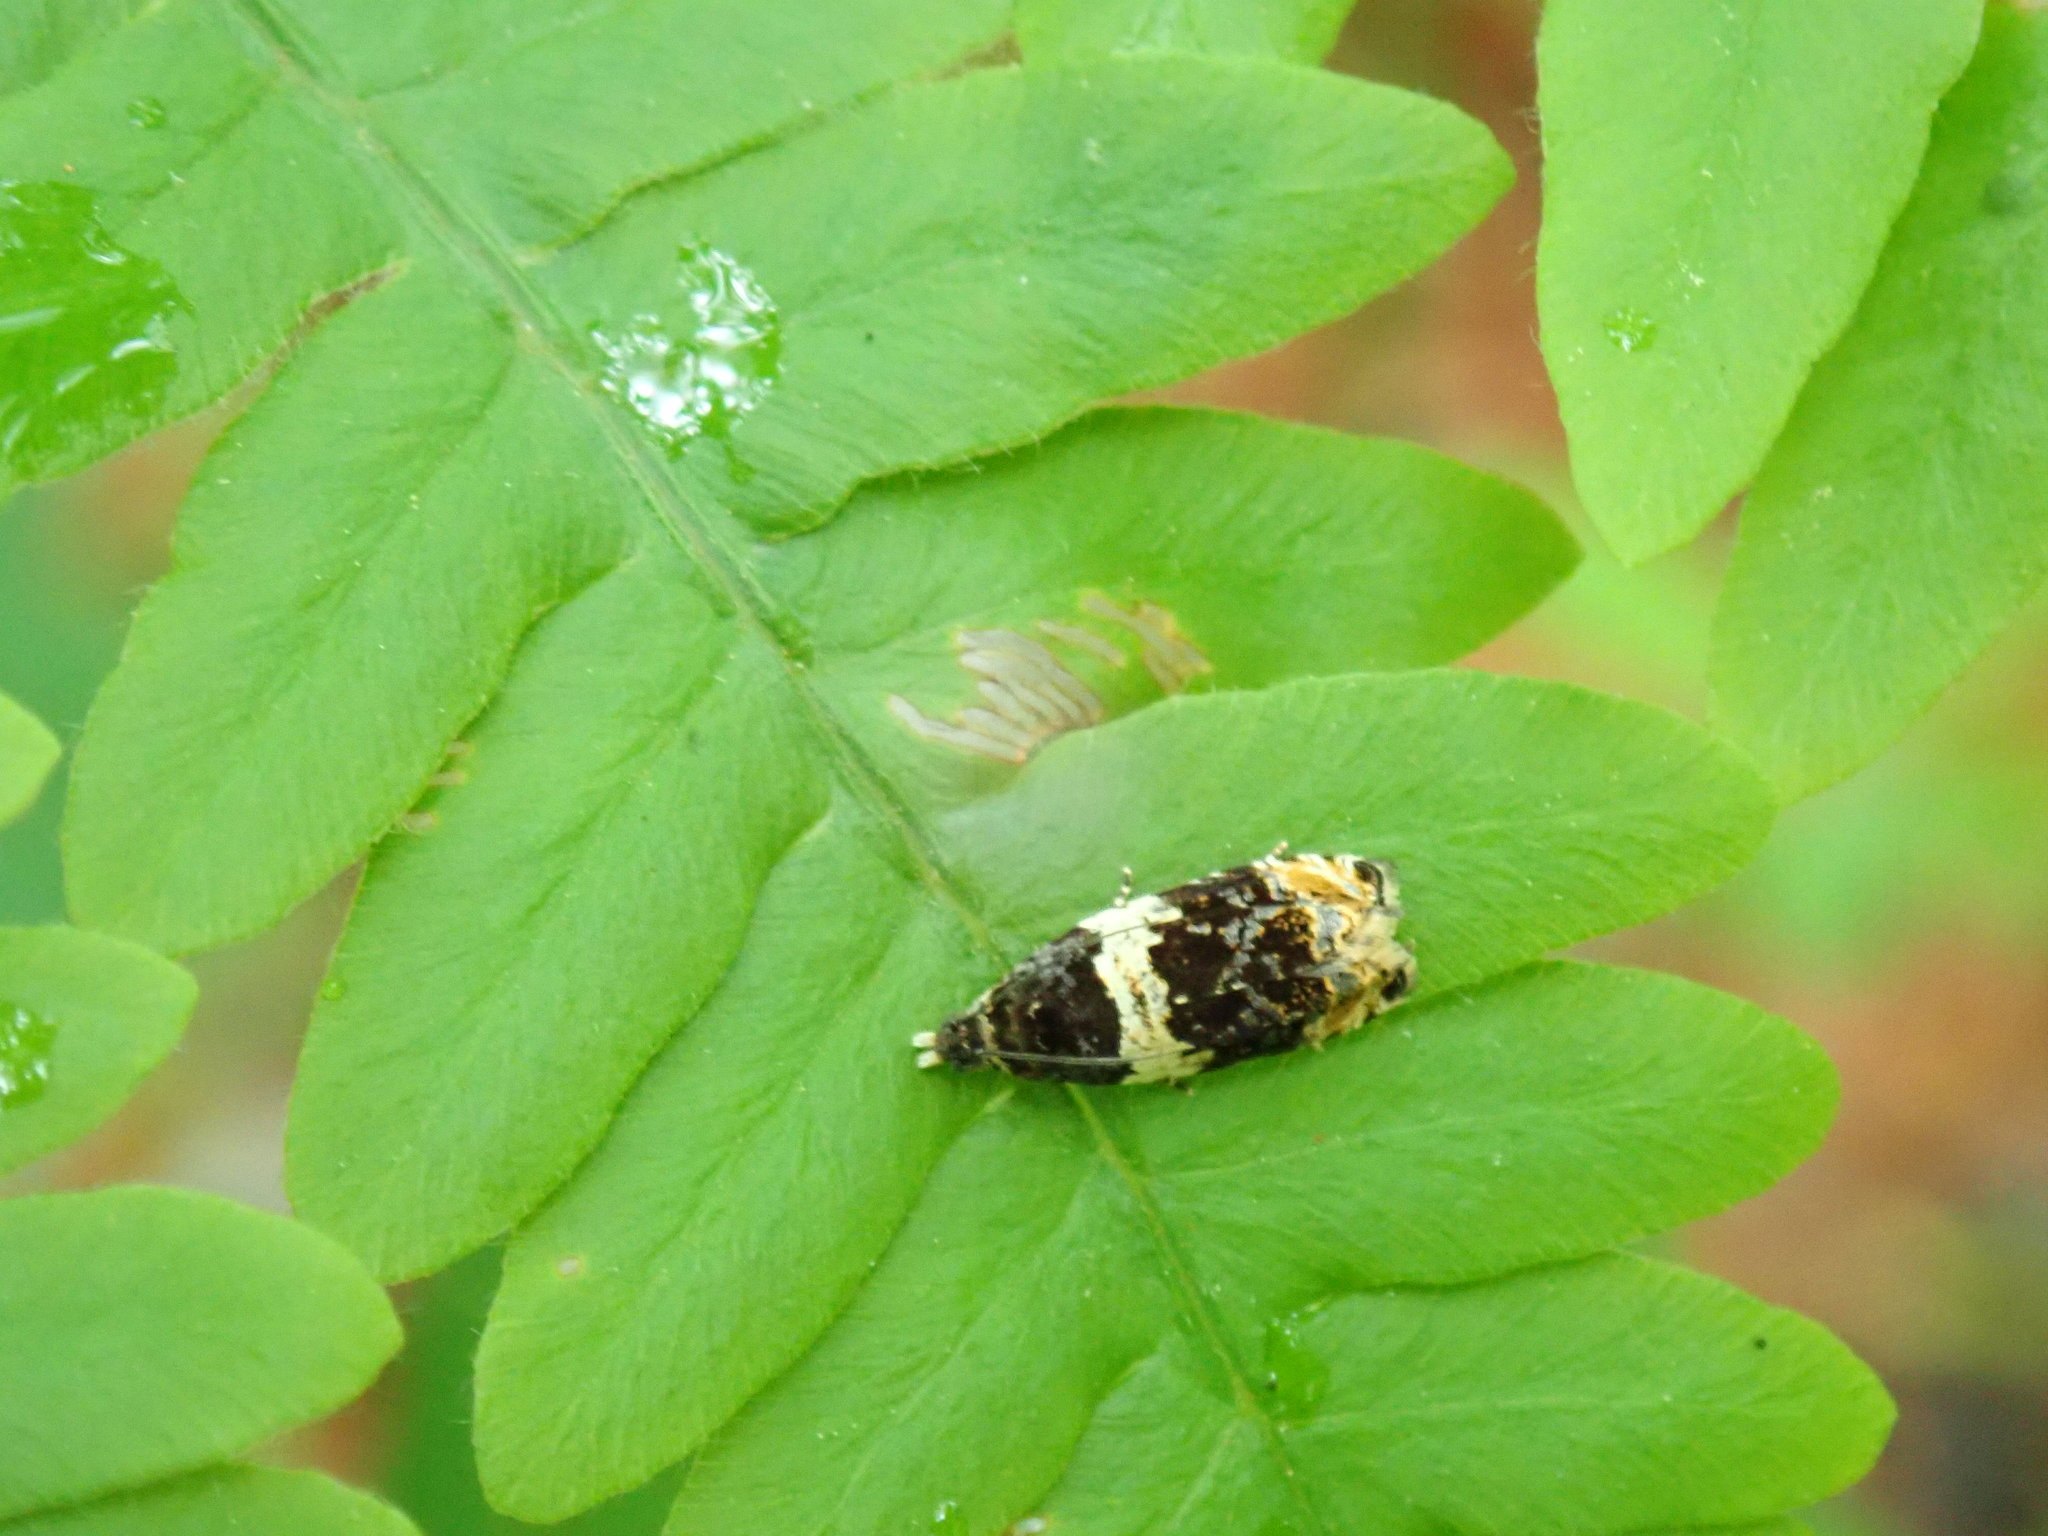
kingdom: Animalia
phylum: Arthropoda
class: Insecta
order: Lepidoptera
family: Tortricidae
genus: Olethreutes
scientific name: Olethreutes fasciatana
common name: Banded olethreutes moth
